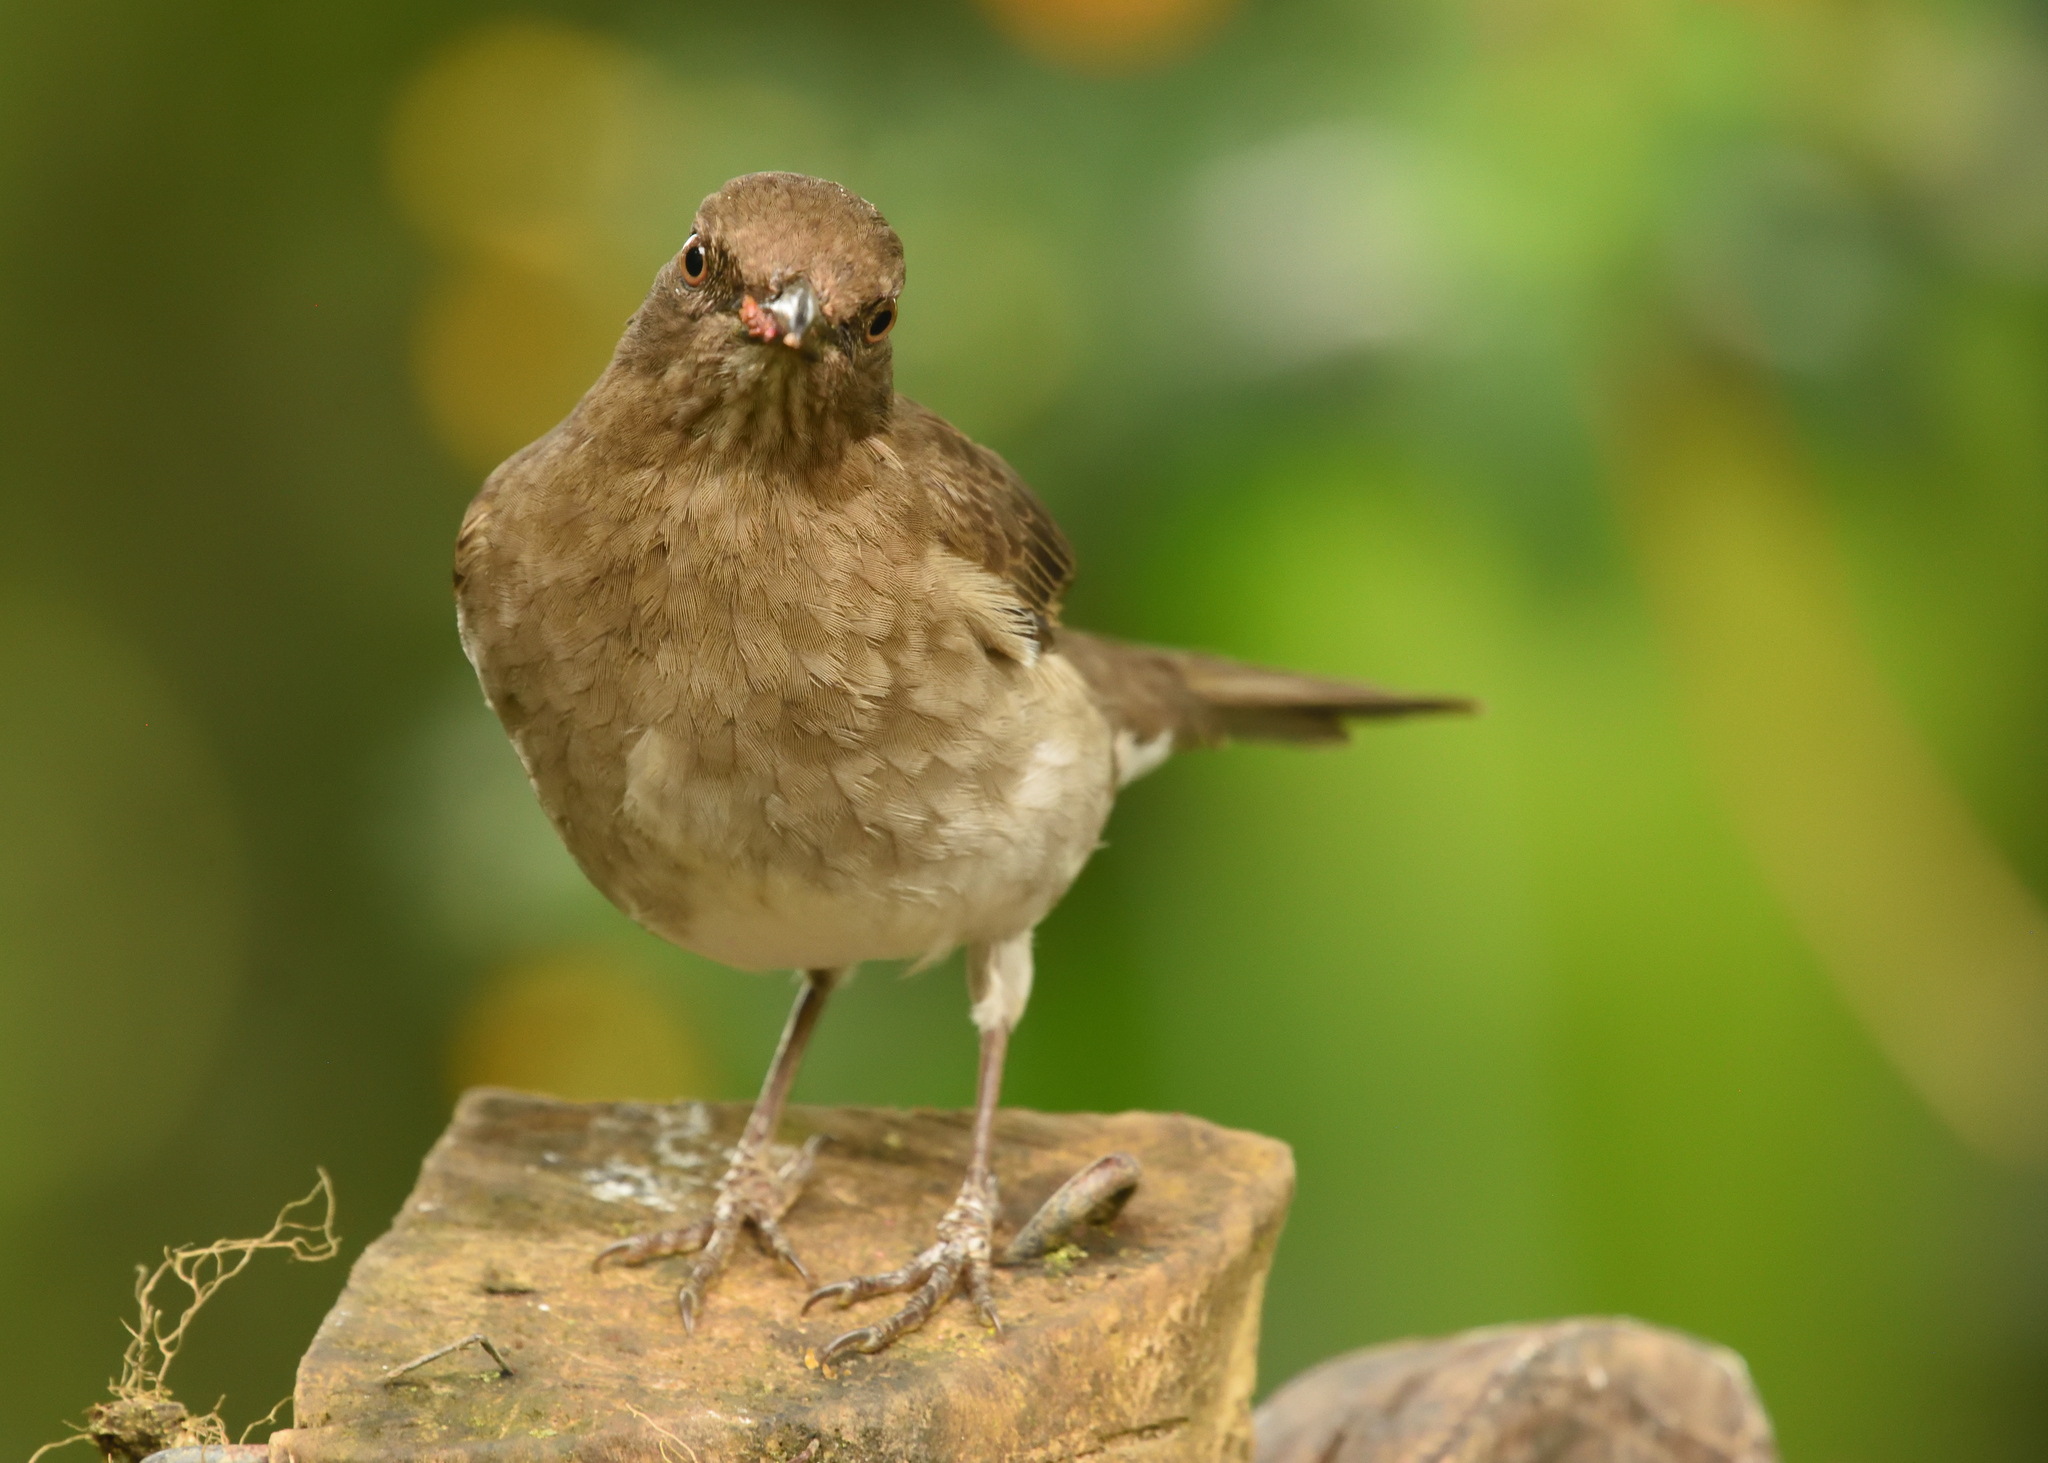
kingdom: Animalia
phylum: Chordata
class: Aves
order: Passeriformes
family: Turdidae
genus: Turdus
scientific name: Turdus ignobilis
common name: Black-billed thrush
